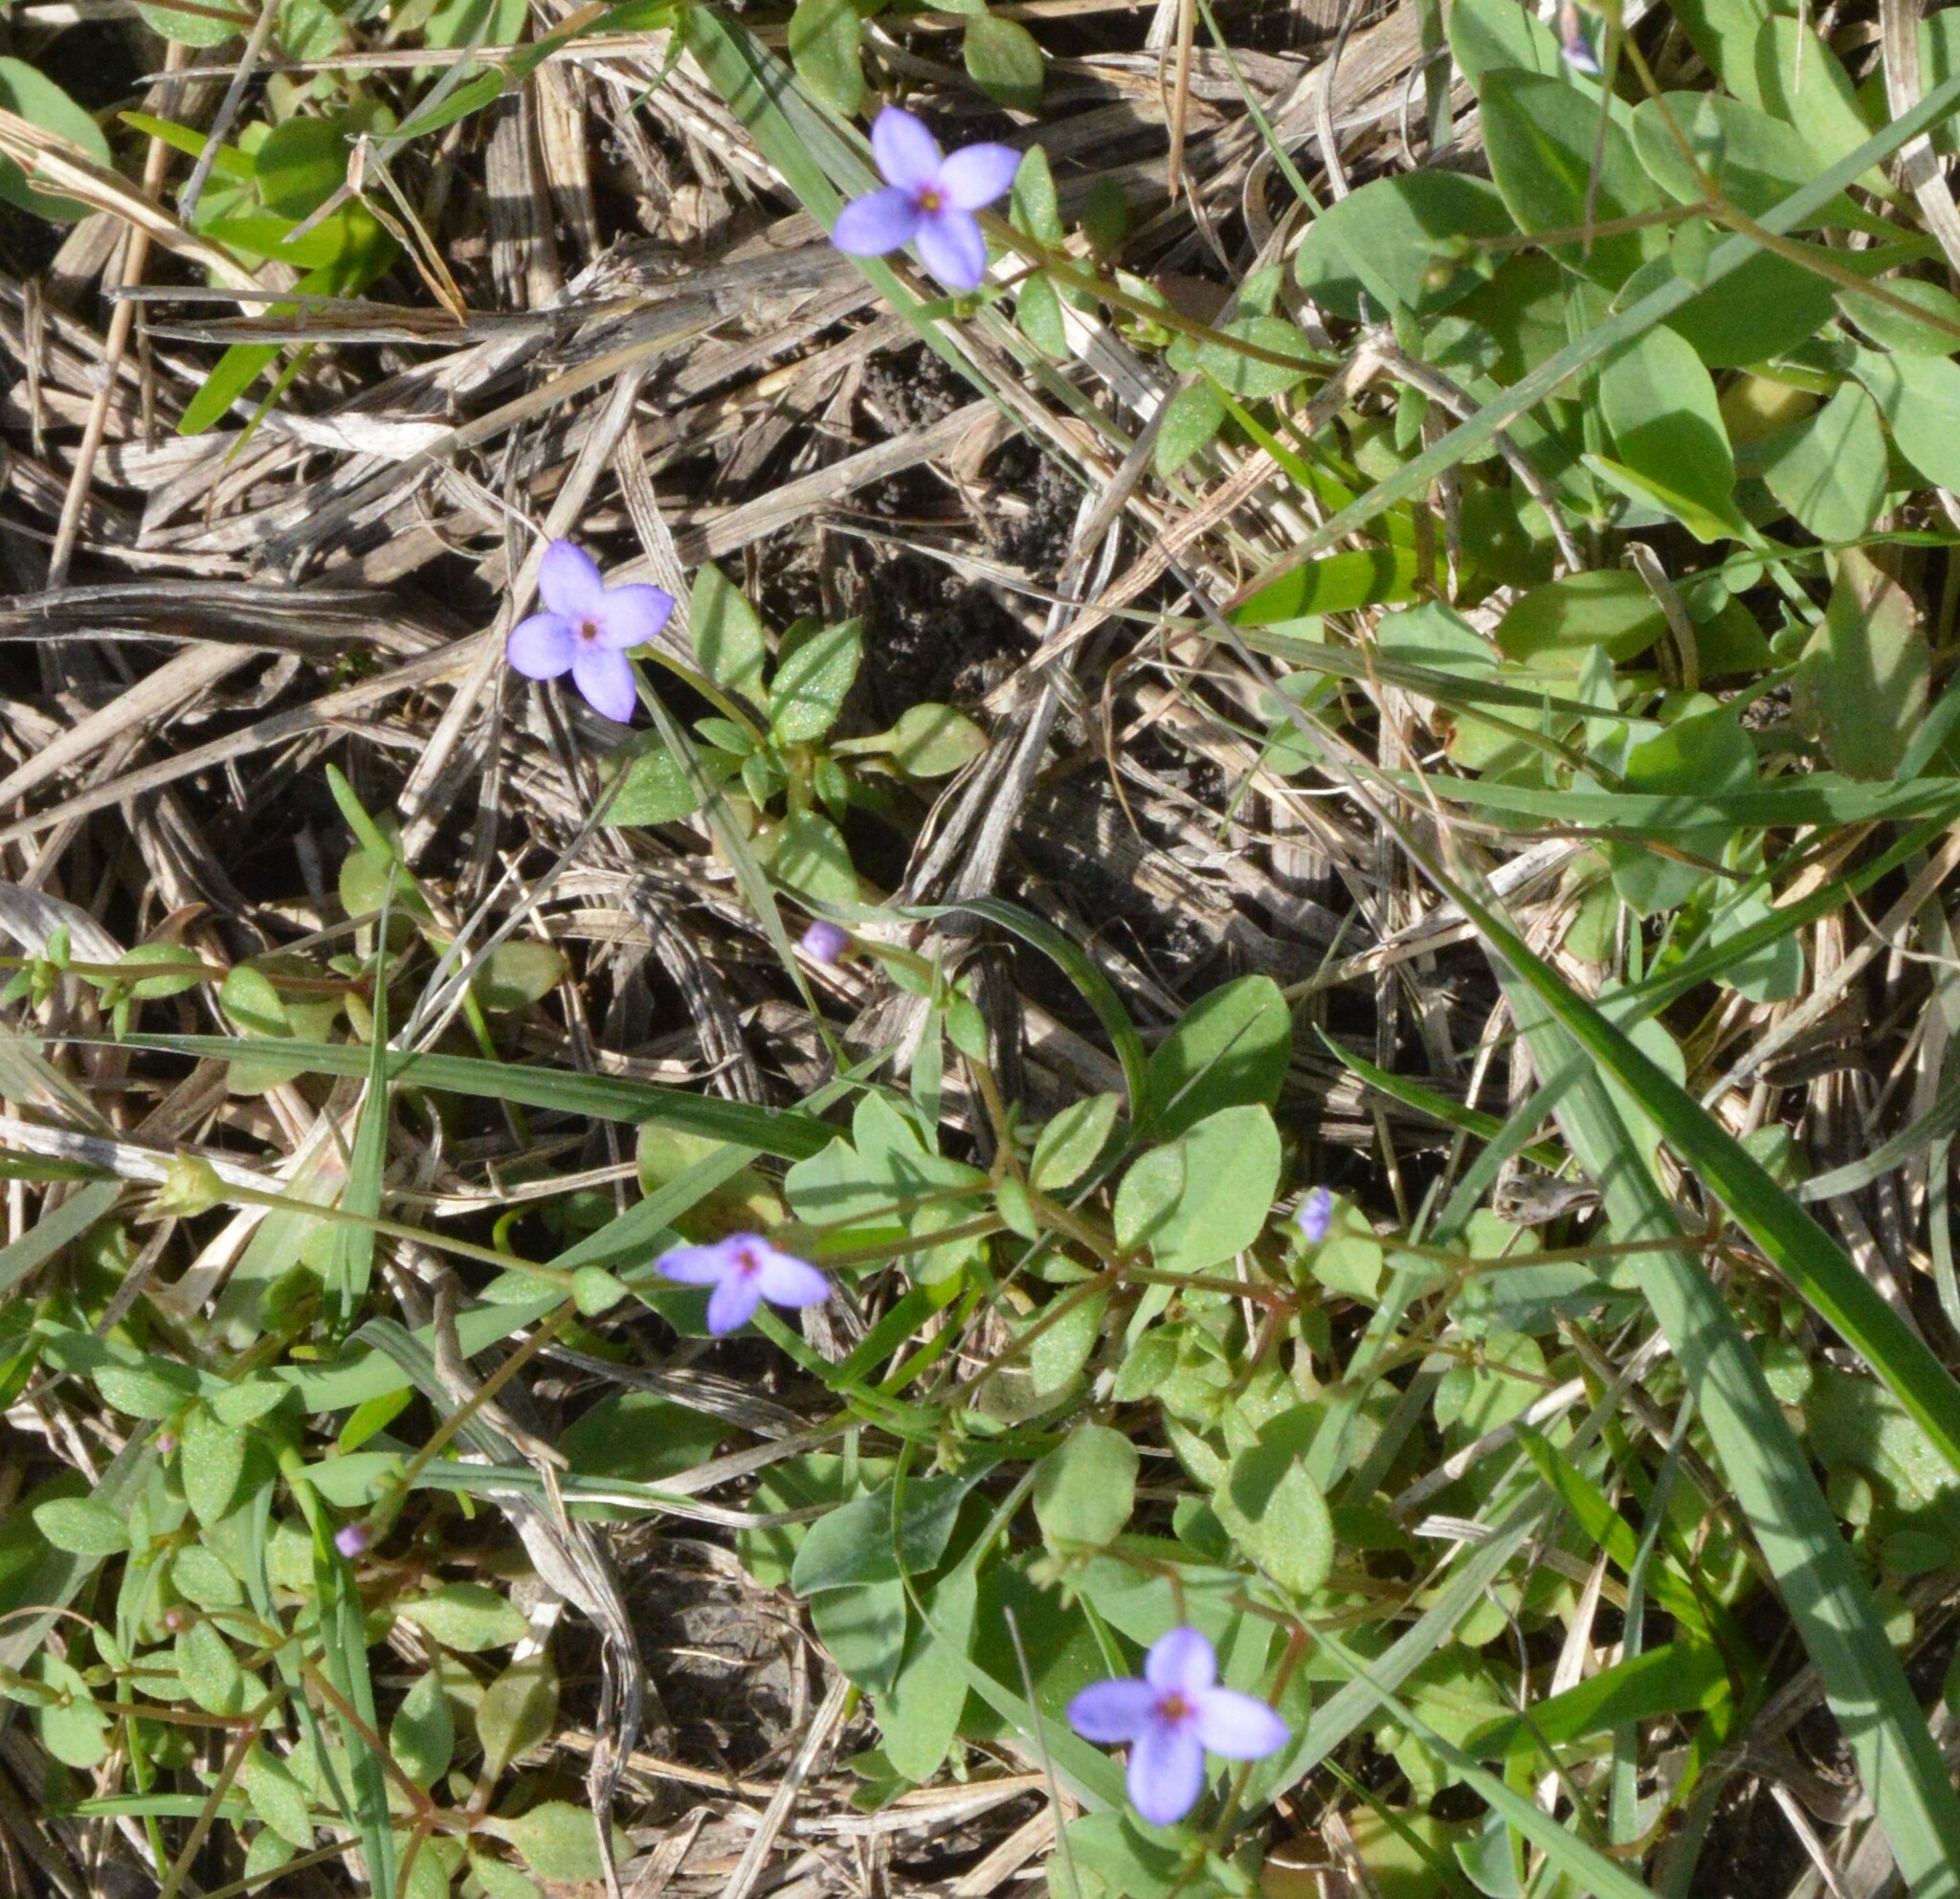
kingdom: Plantae
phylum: Tracheophyta
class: Magnoliopsida
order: Gentianales
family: Rubiaceae
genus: Houstonia
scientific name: Houstonia pusilla
